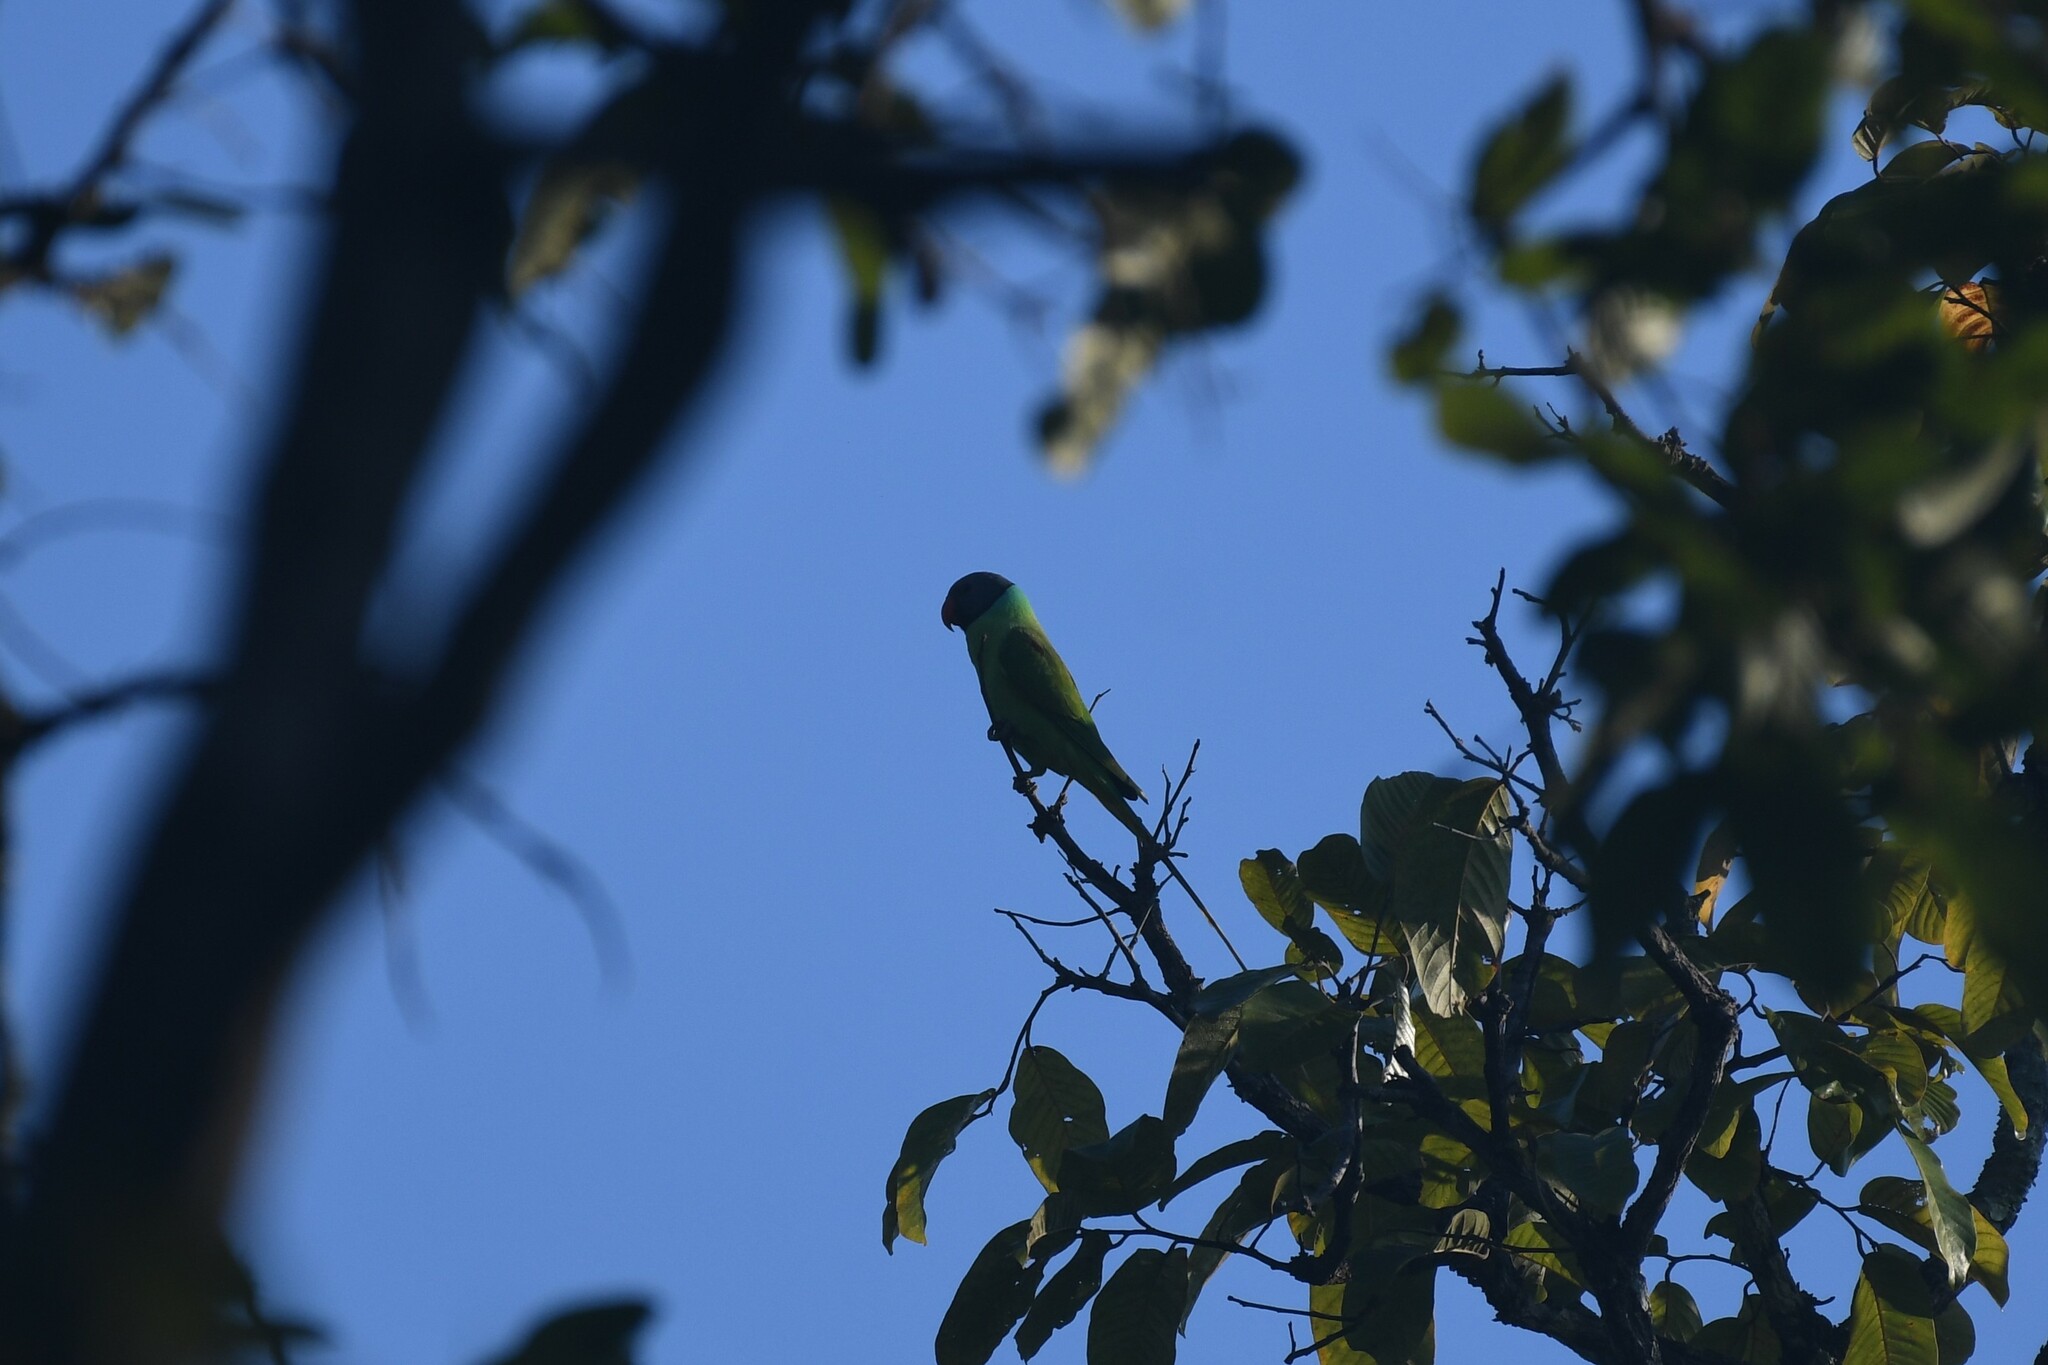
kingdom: Animalia
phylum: Chordata
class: Aves
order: Psittaciformes
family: Psittacidae
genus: Psittacula
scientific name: Psittacula finschii
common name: Grey-headed parakeet
